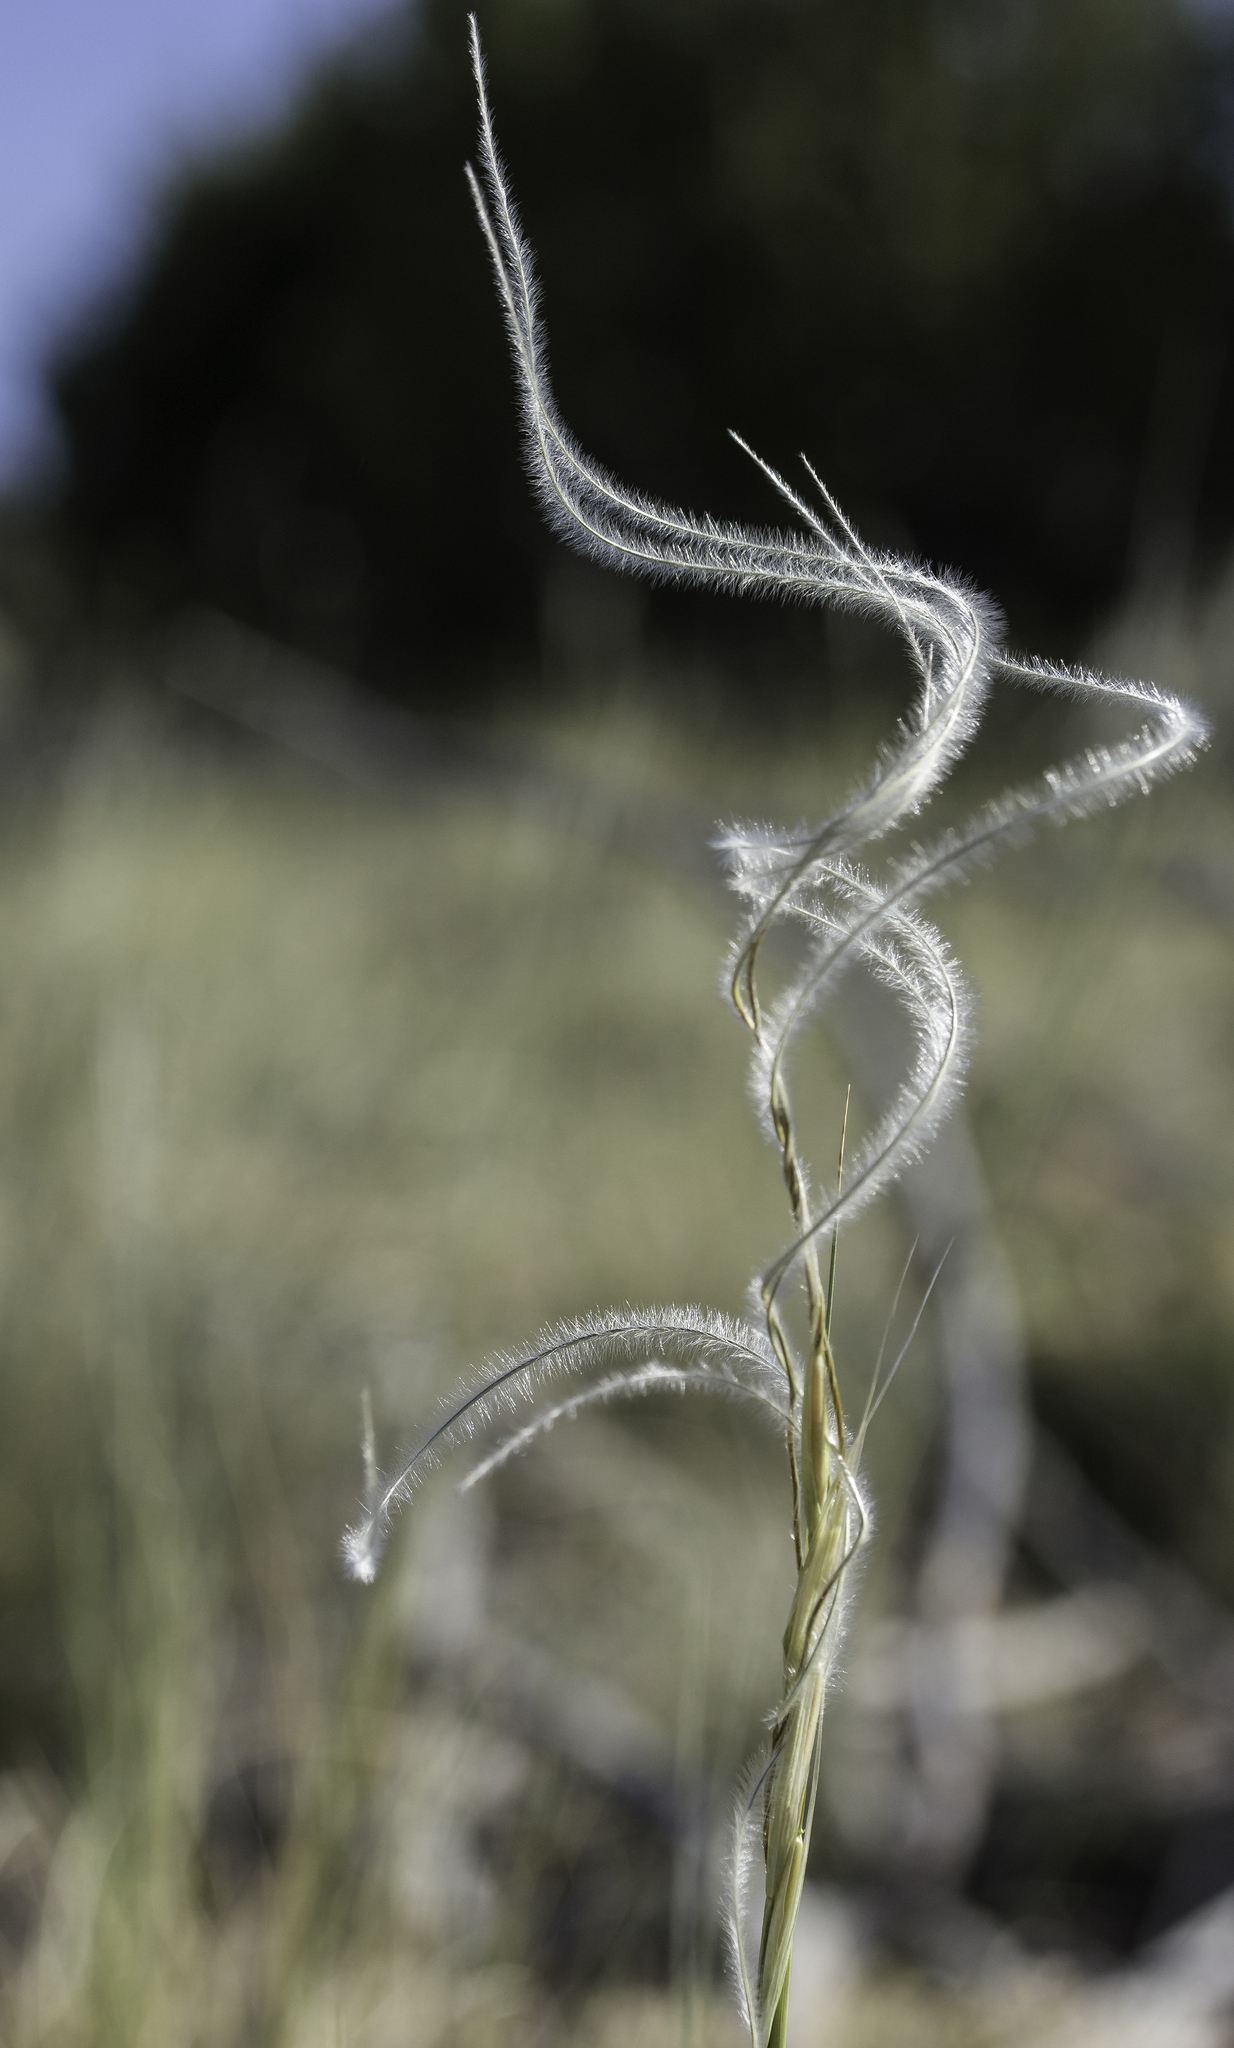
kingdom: Plantae
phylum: Tracheophyta
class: Liliopsida
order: Poales
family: Poaceae
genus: Hesperostipa
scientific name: Hesperostipa neomexicana
